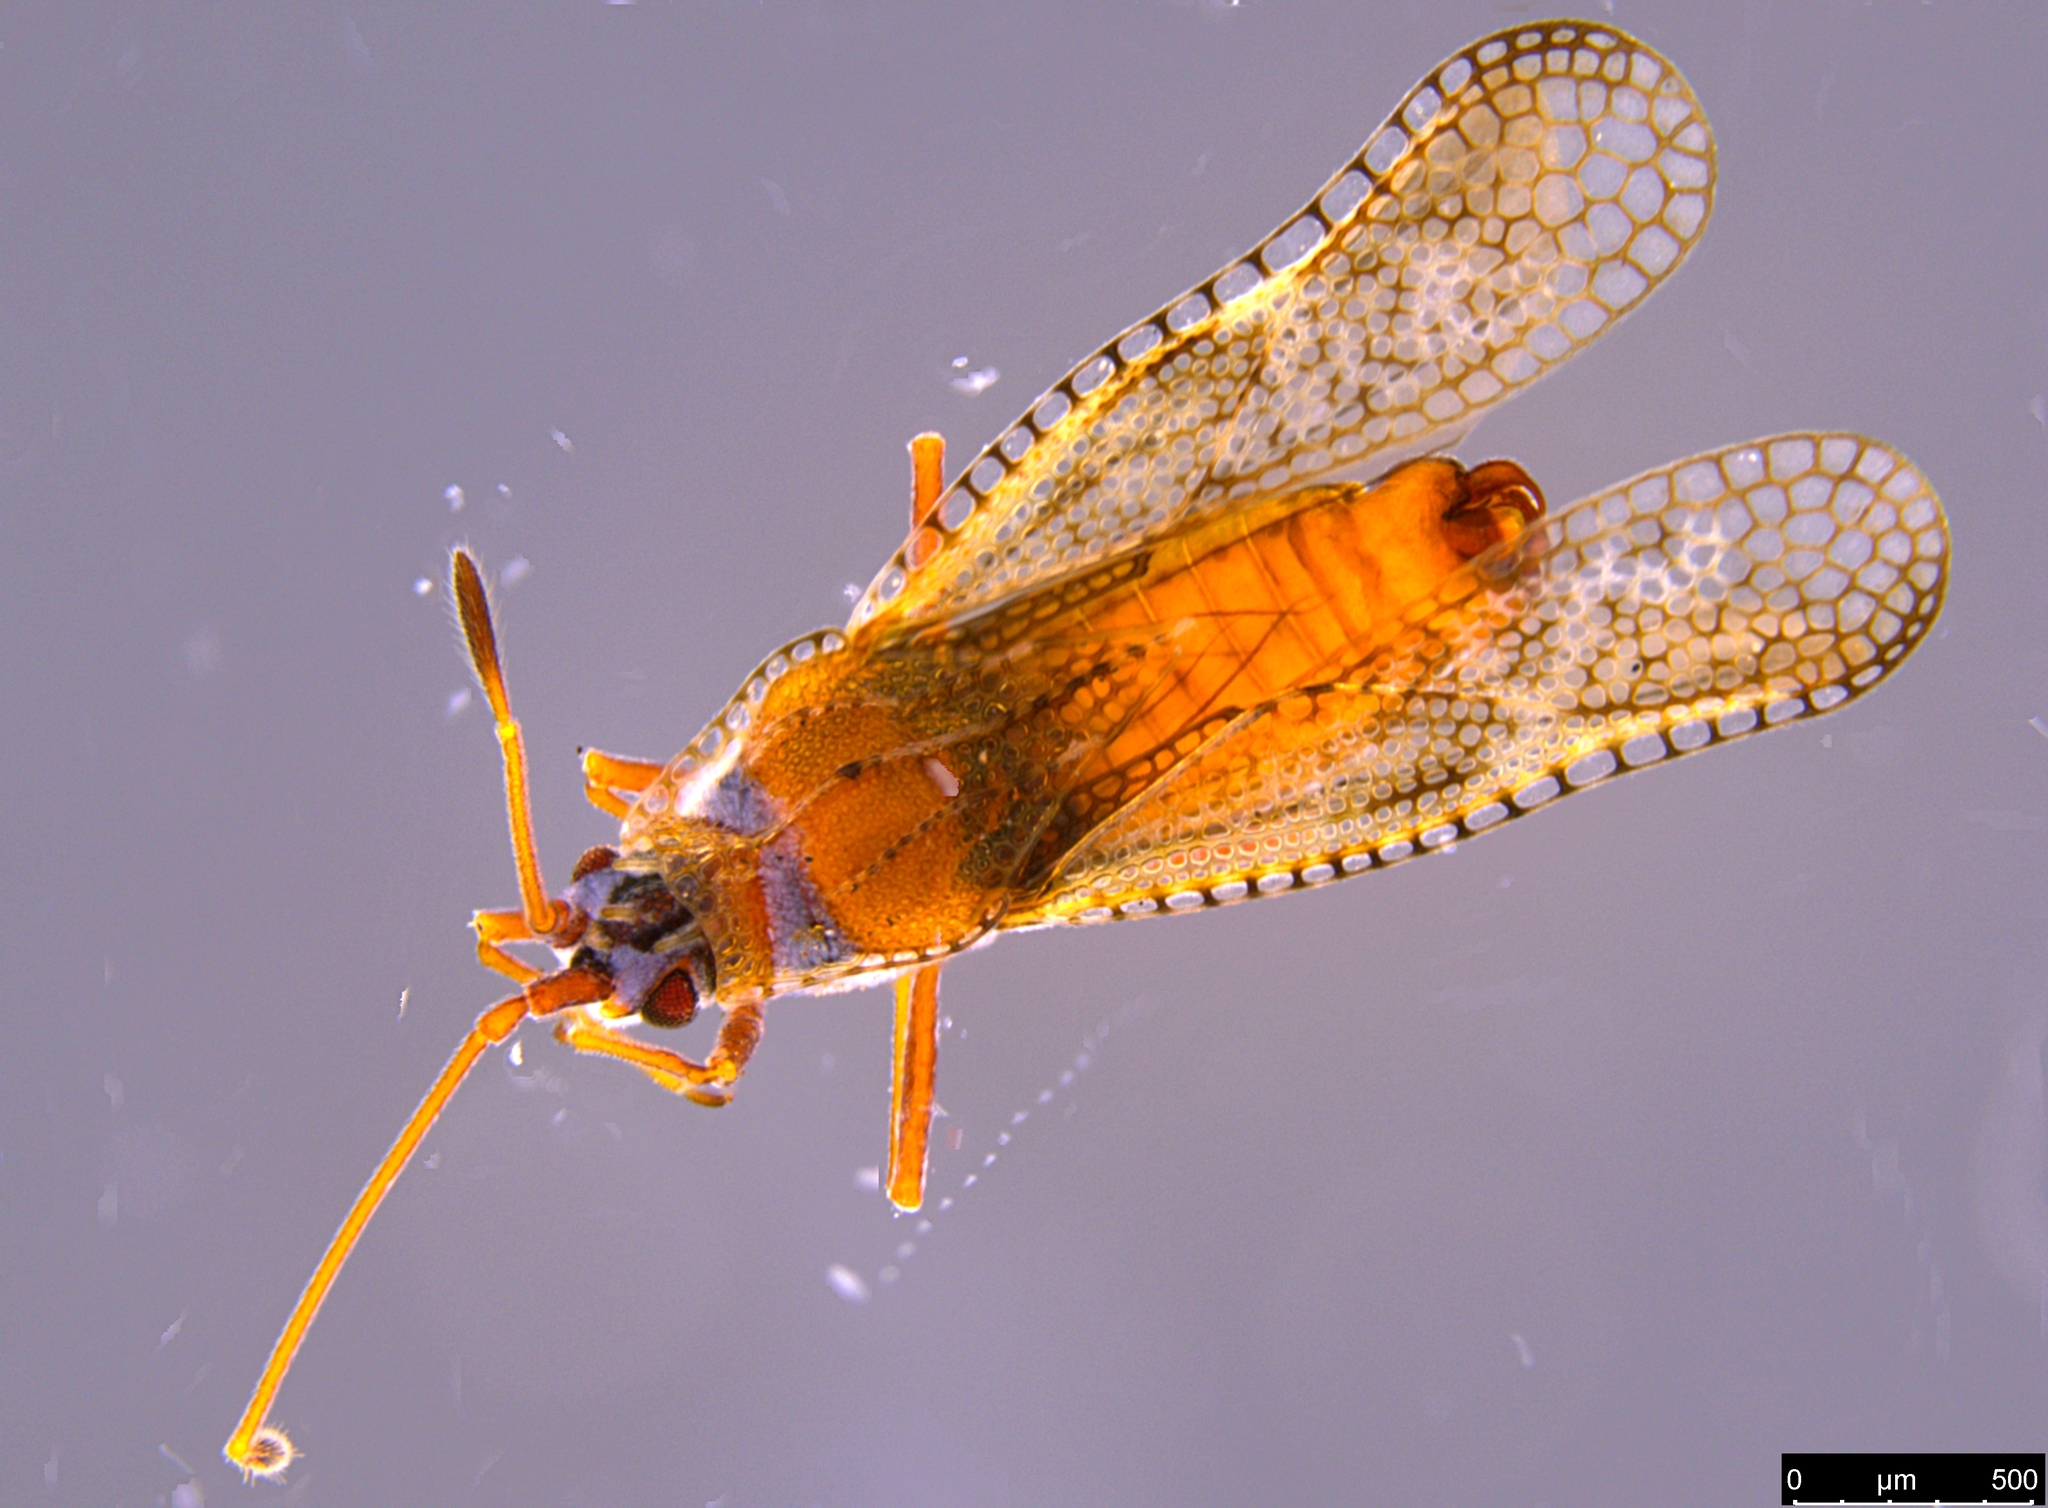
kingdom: Animalia
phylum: Arthropoda
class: Insecta
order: Hemiptera
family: Tingidae
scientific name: Tingidae
